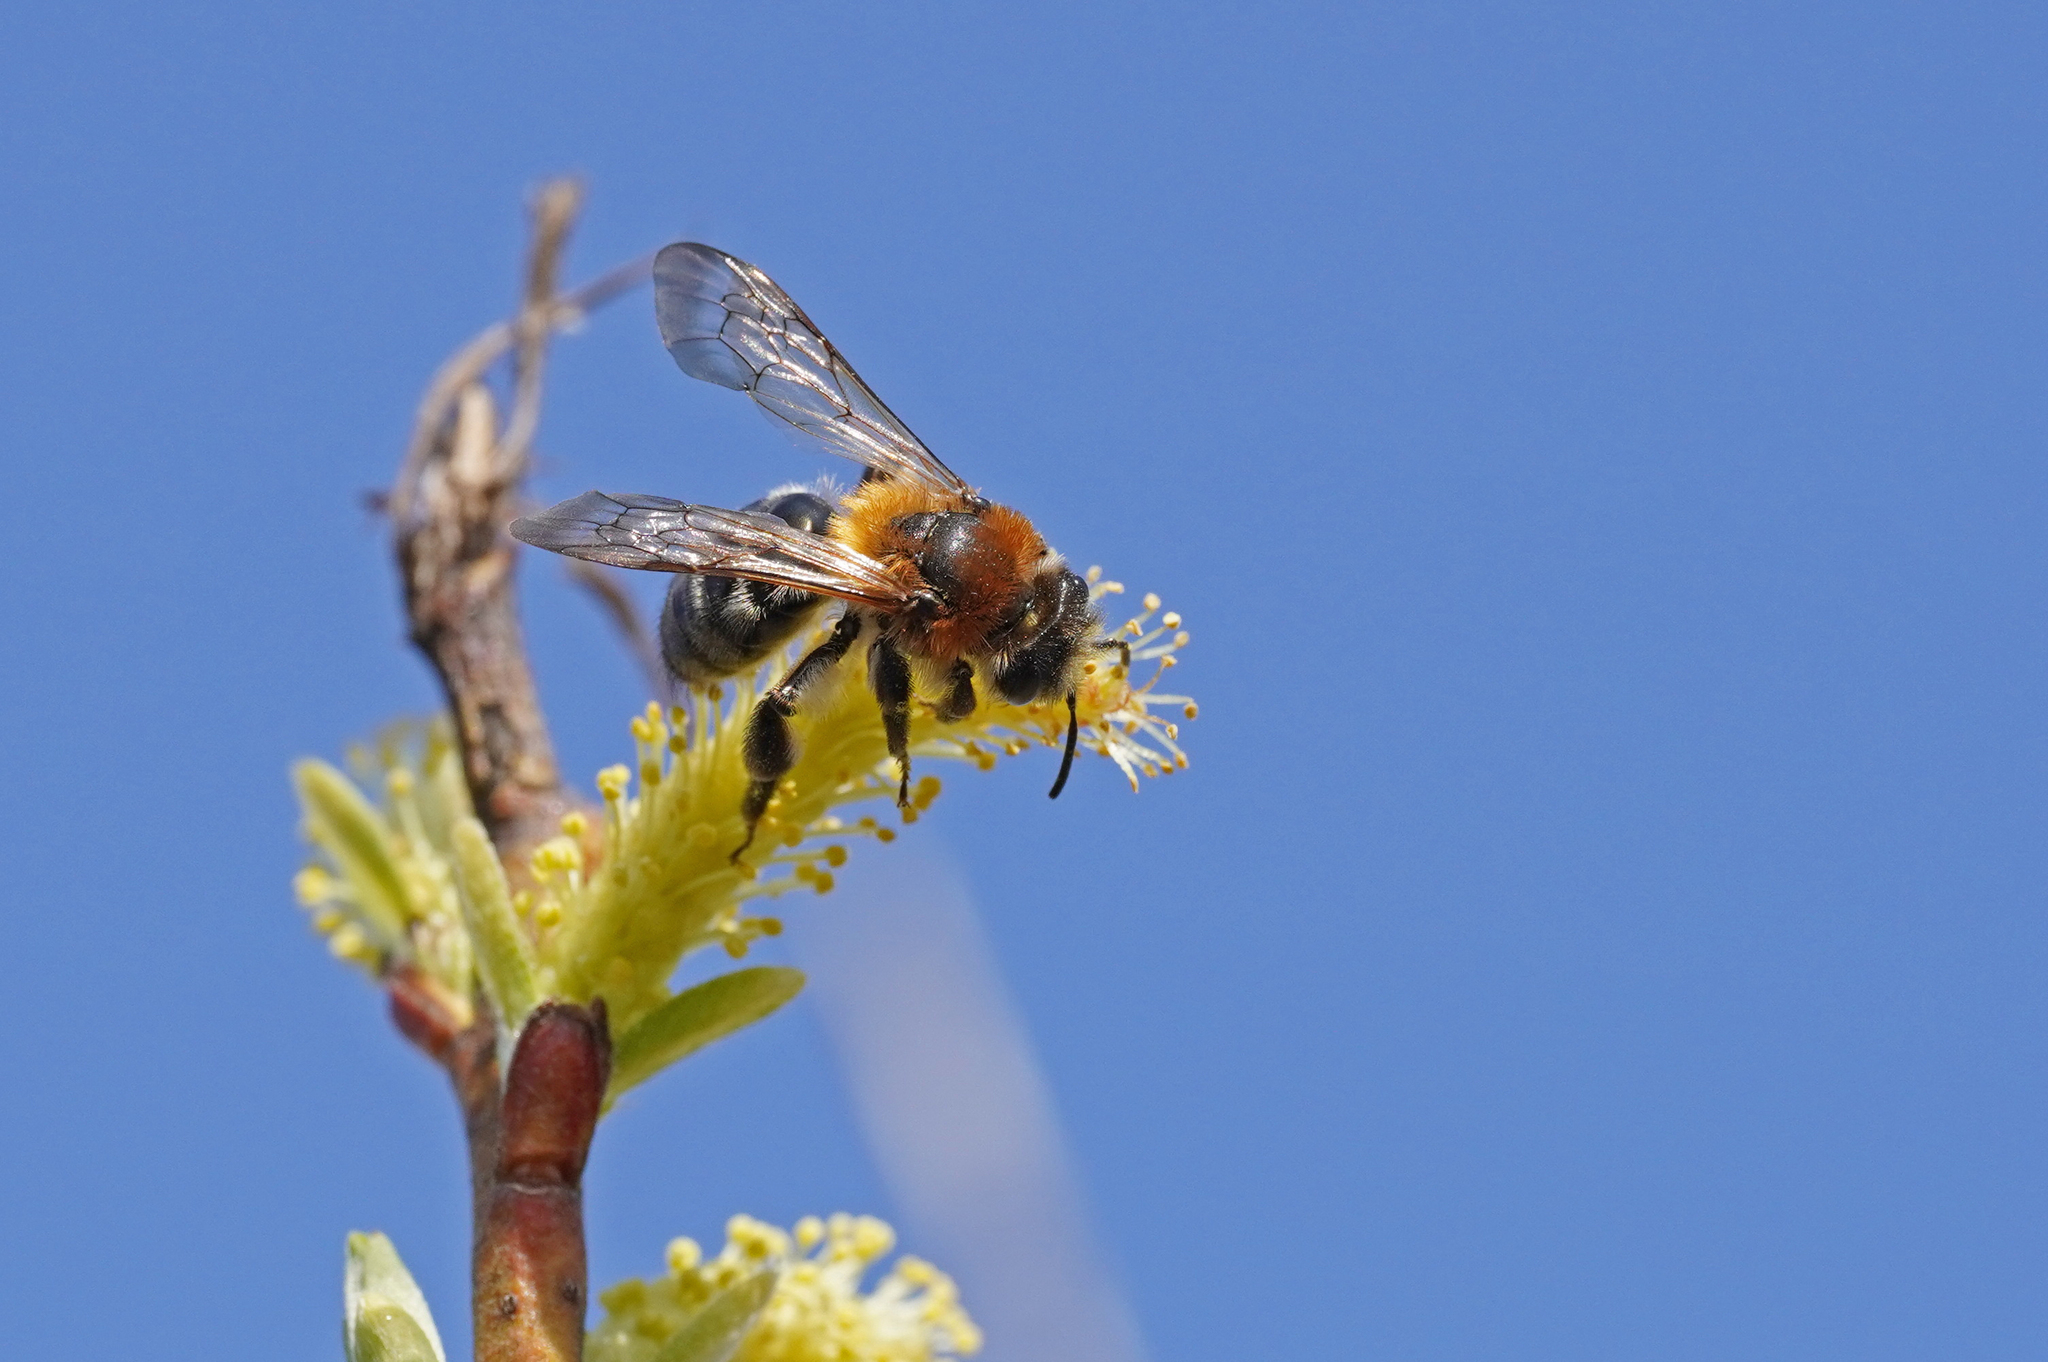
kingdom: Animalia
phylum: Arthropoda
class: Insecta
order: Hymenoptera
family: Andrenidae
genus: Andrena
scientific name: Andrena nitida
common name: Grey-patched mining bee
